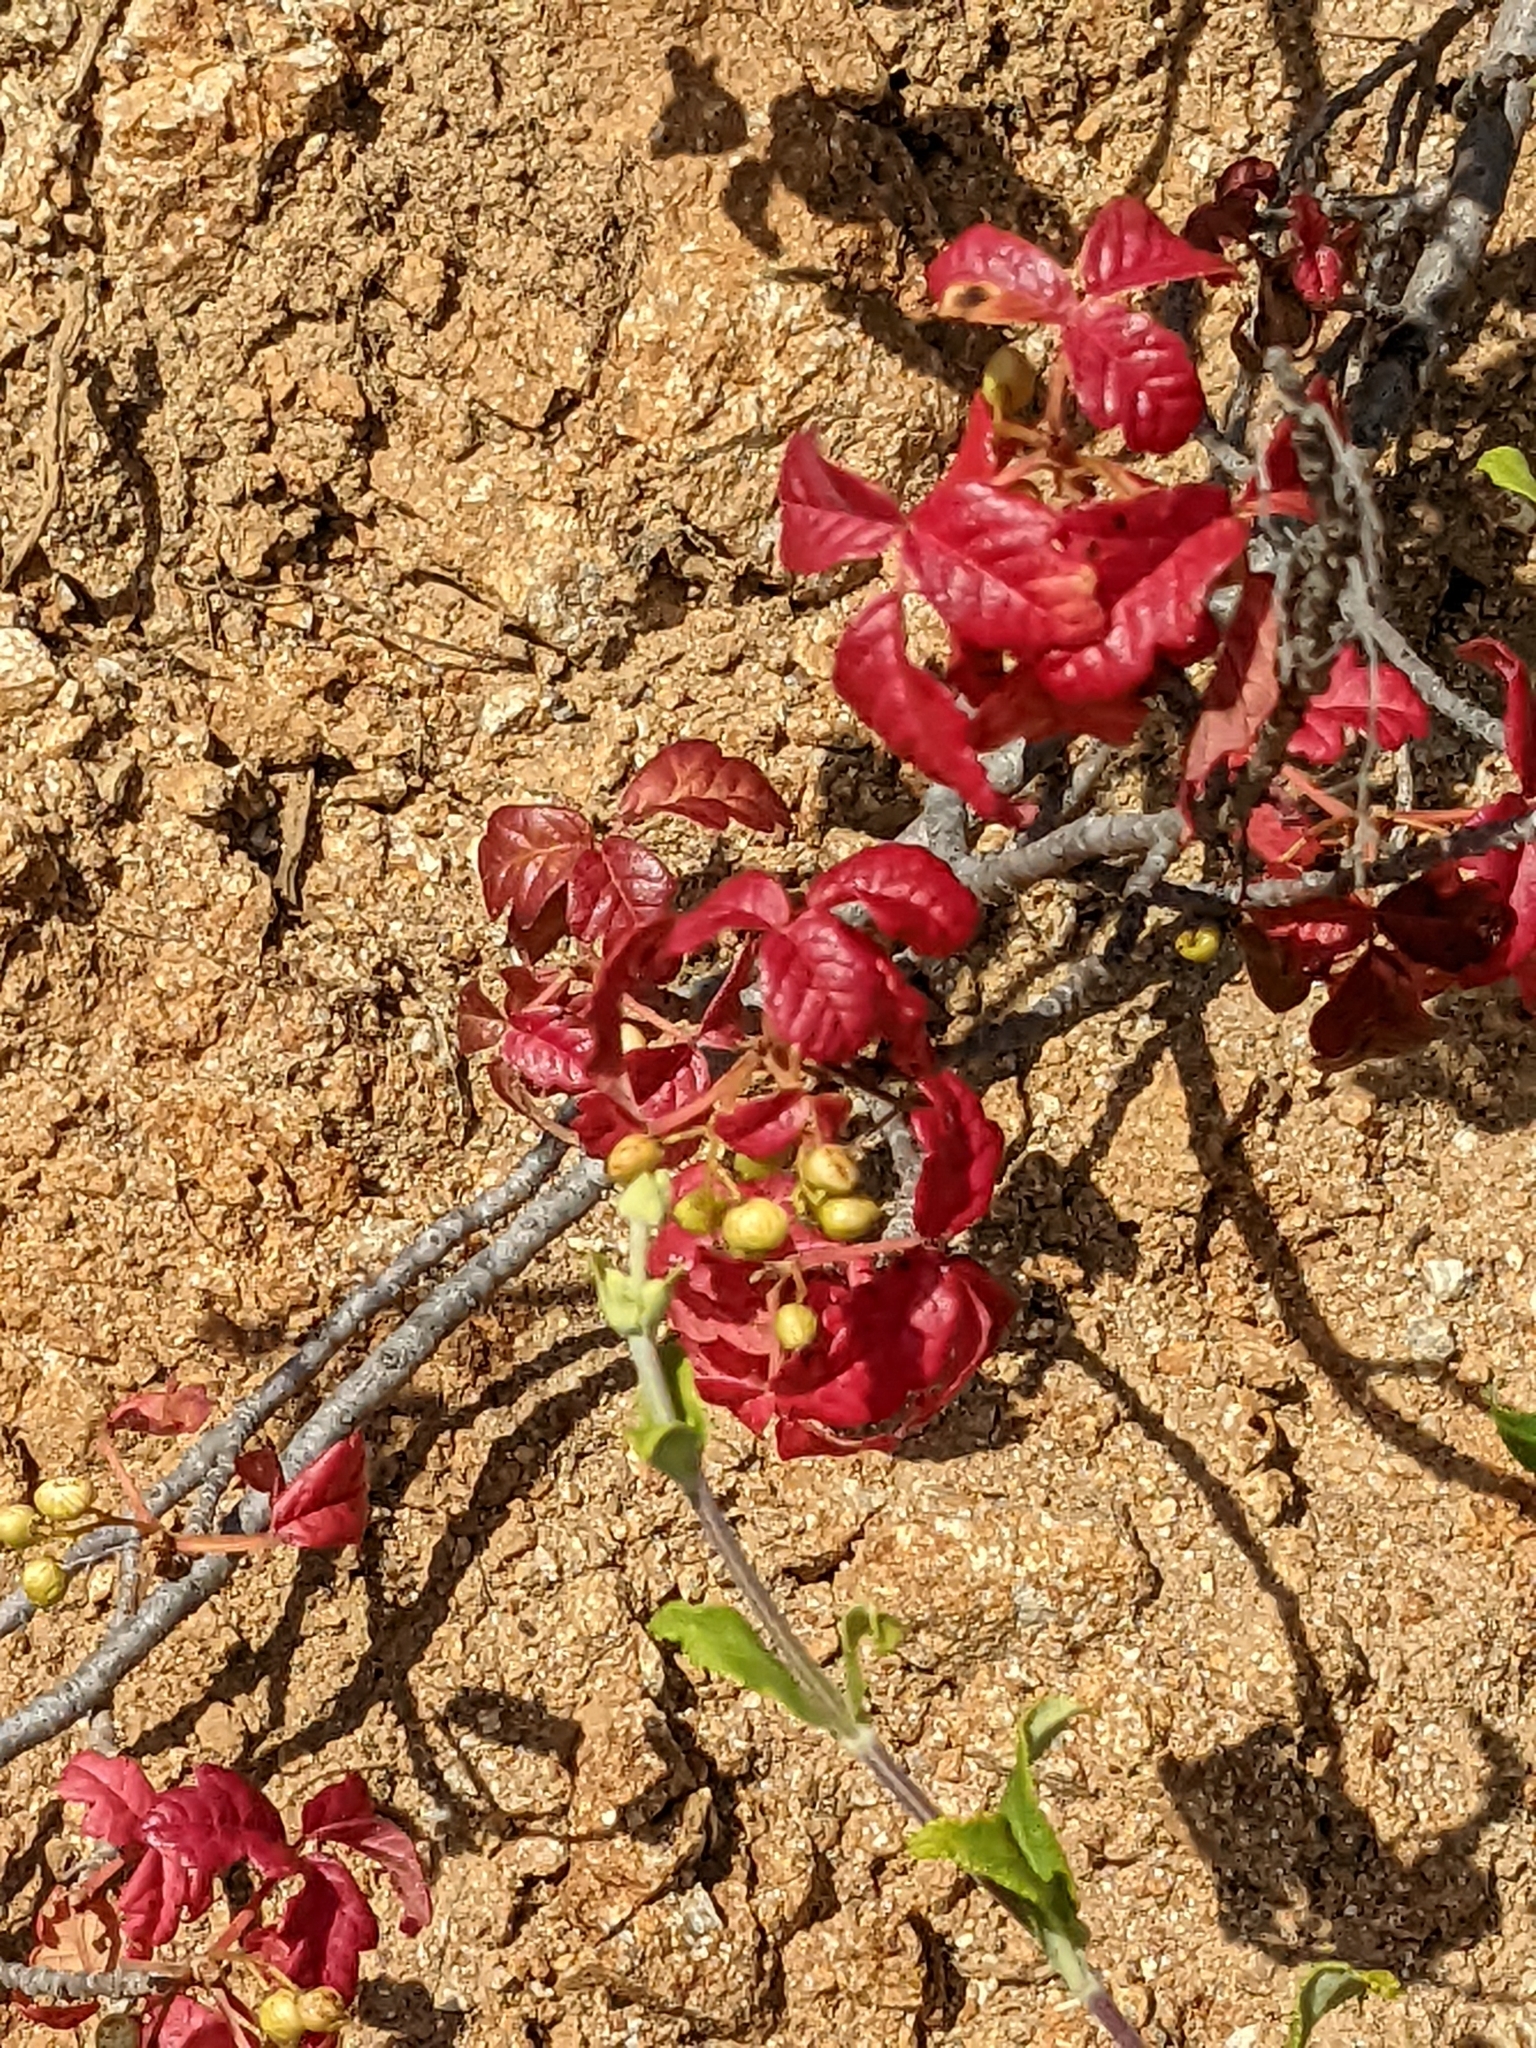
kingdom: Plantae
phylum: Tracheophyta
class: Magnoliopsida
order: Sapindales
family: Anacardiaceae
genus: Toxicodendron
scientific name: Toxicodendron diversilobum
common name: Pacific poison-oak
